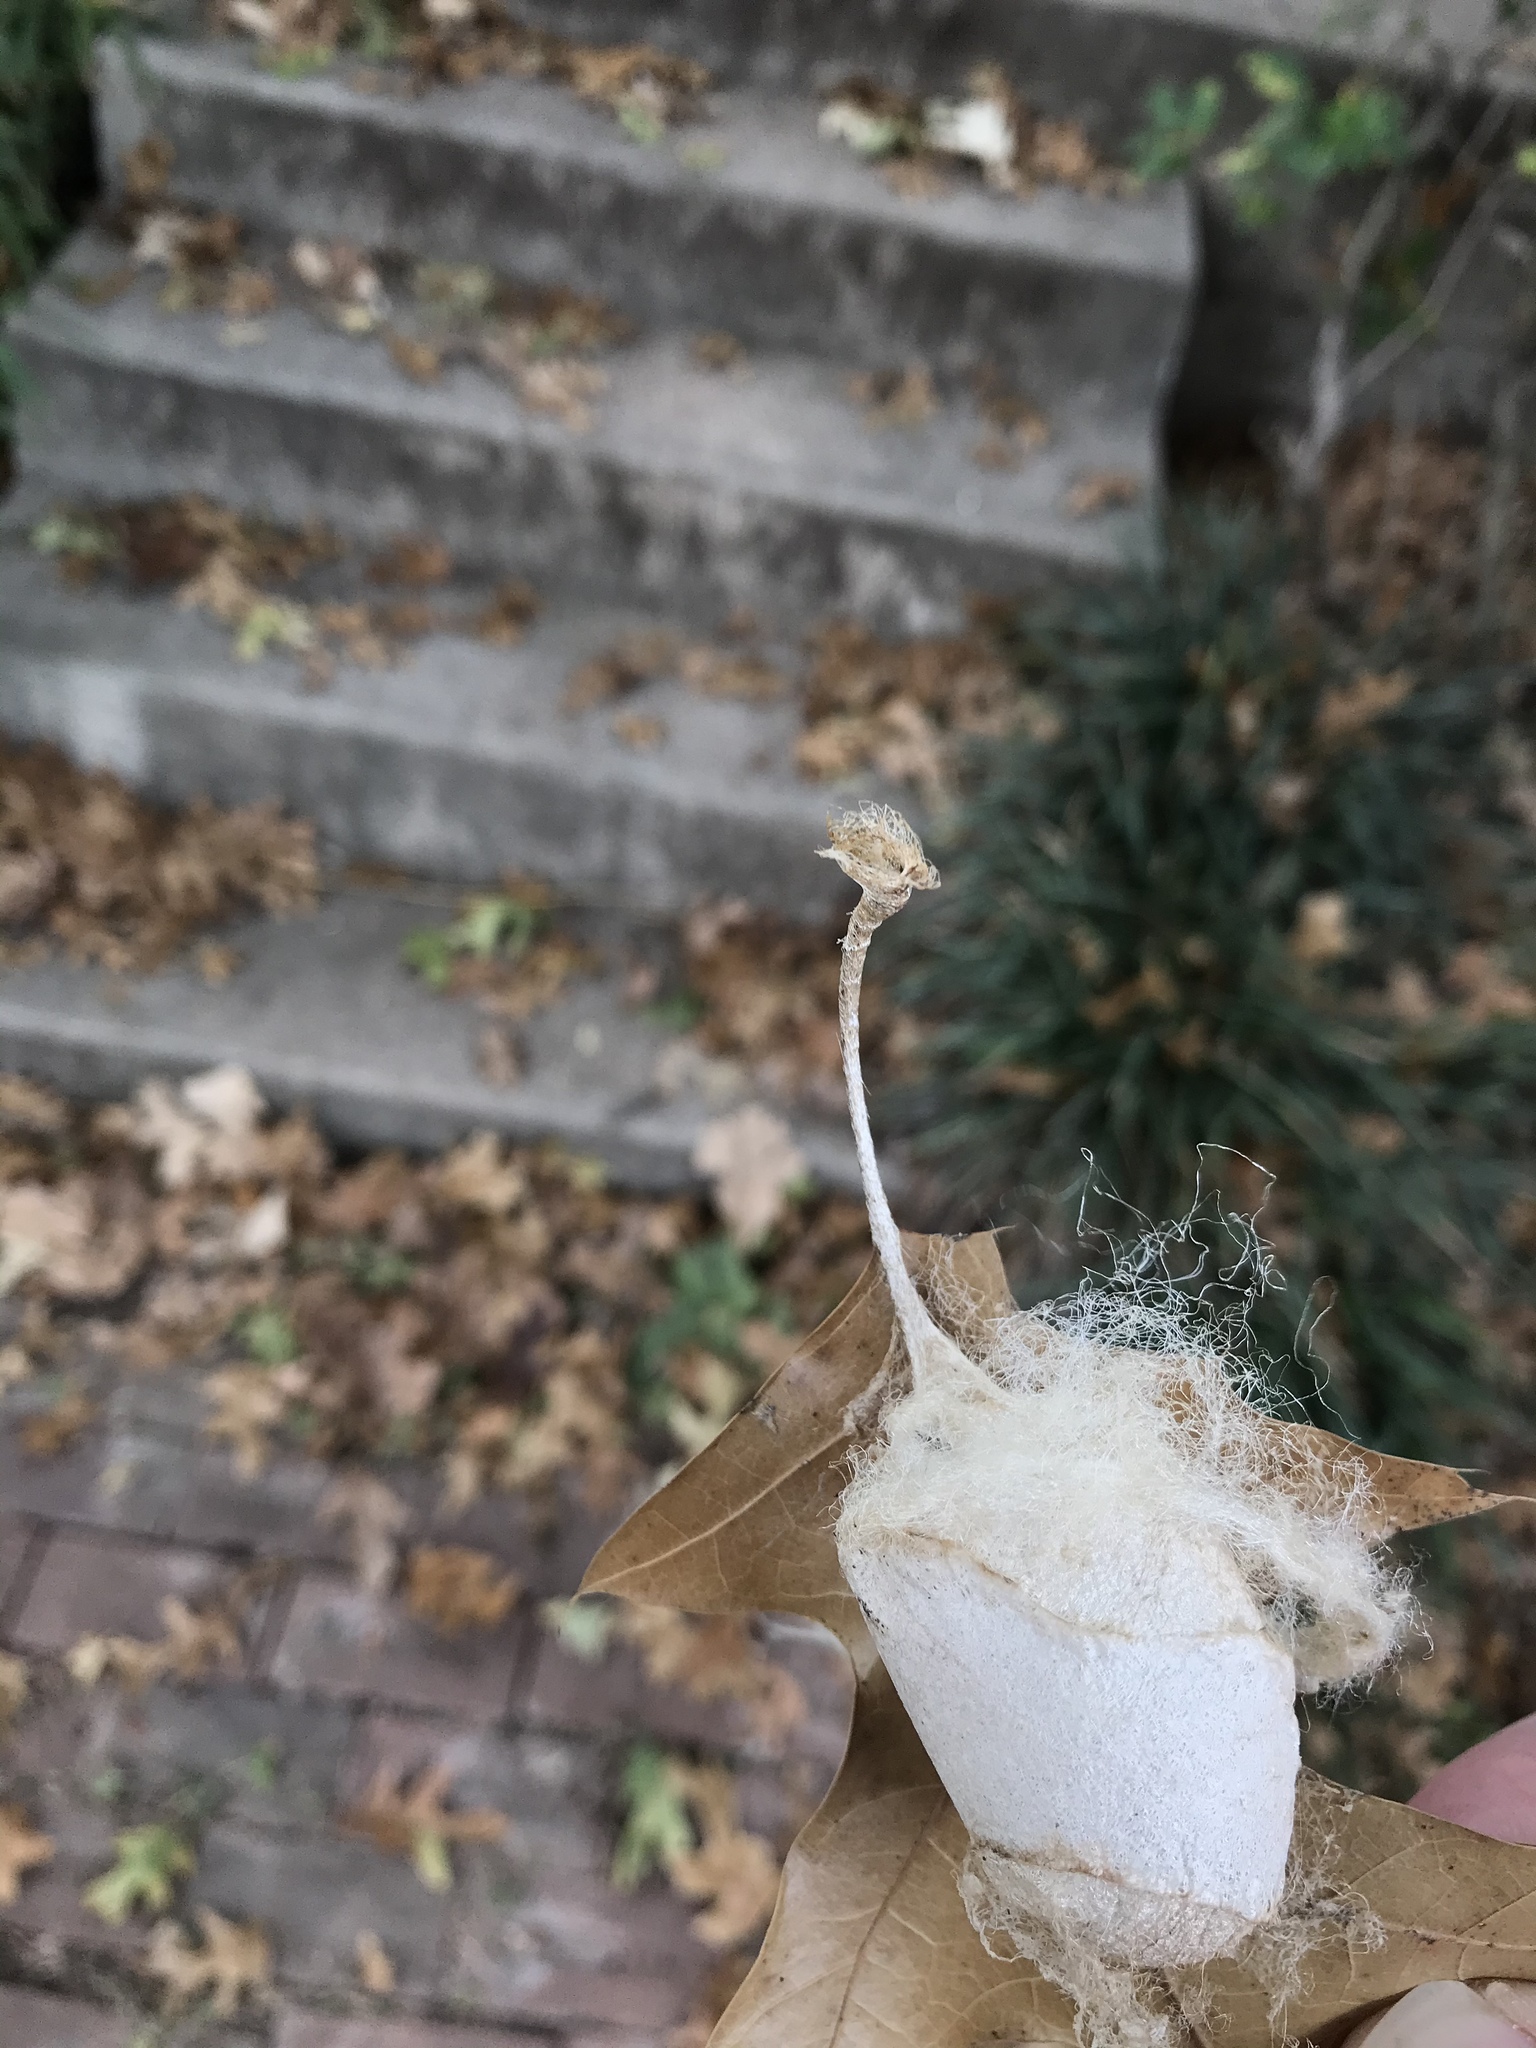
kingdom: Animalia
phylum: Arthropoda
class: Insecta
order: Lepidoptera
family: Saturniidae
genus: Antheraea
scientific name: Antheraea polyphemus
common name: Polyphemus moth
